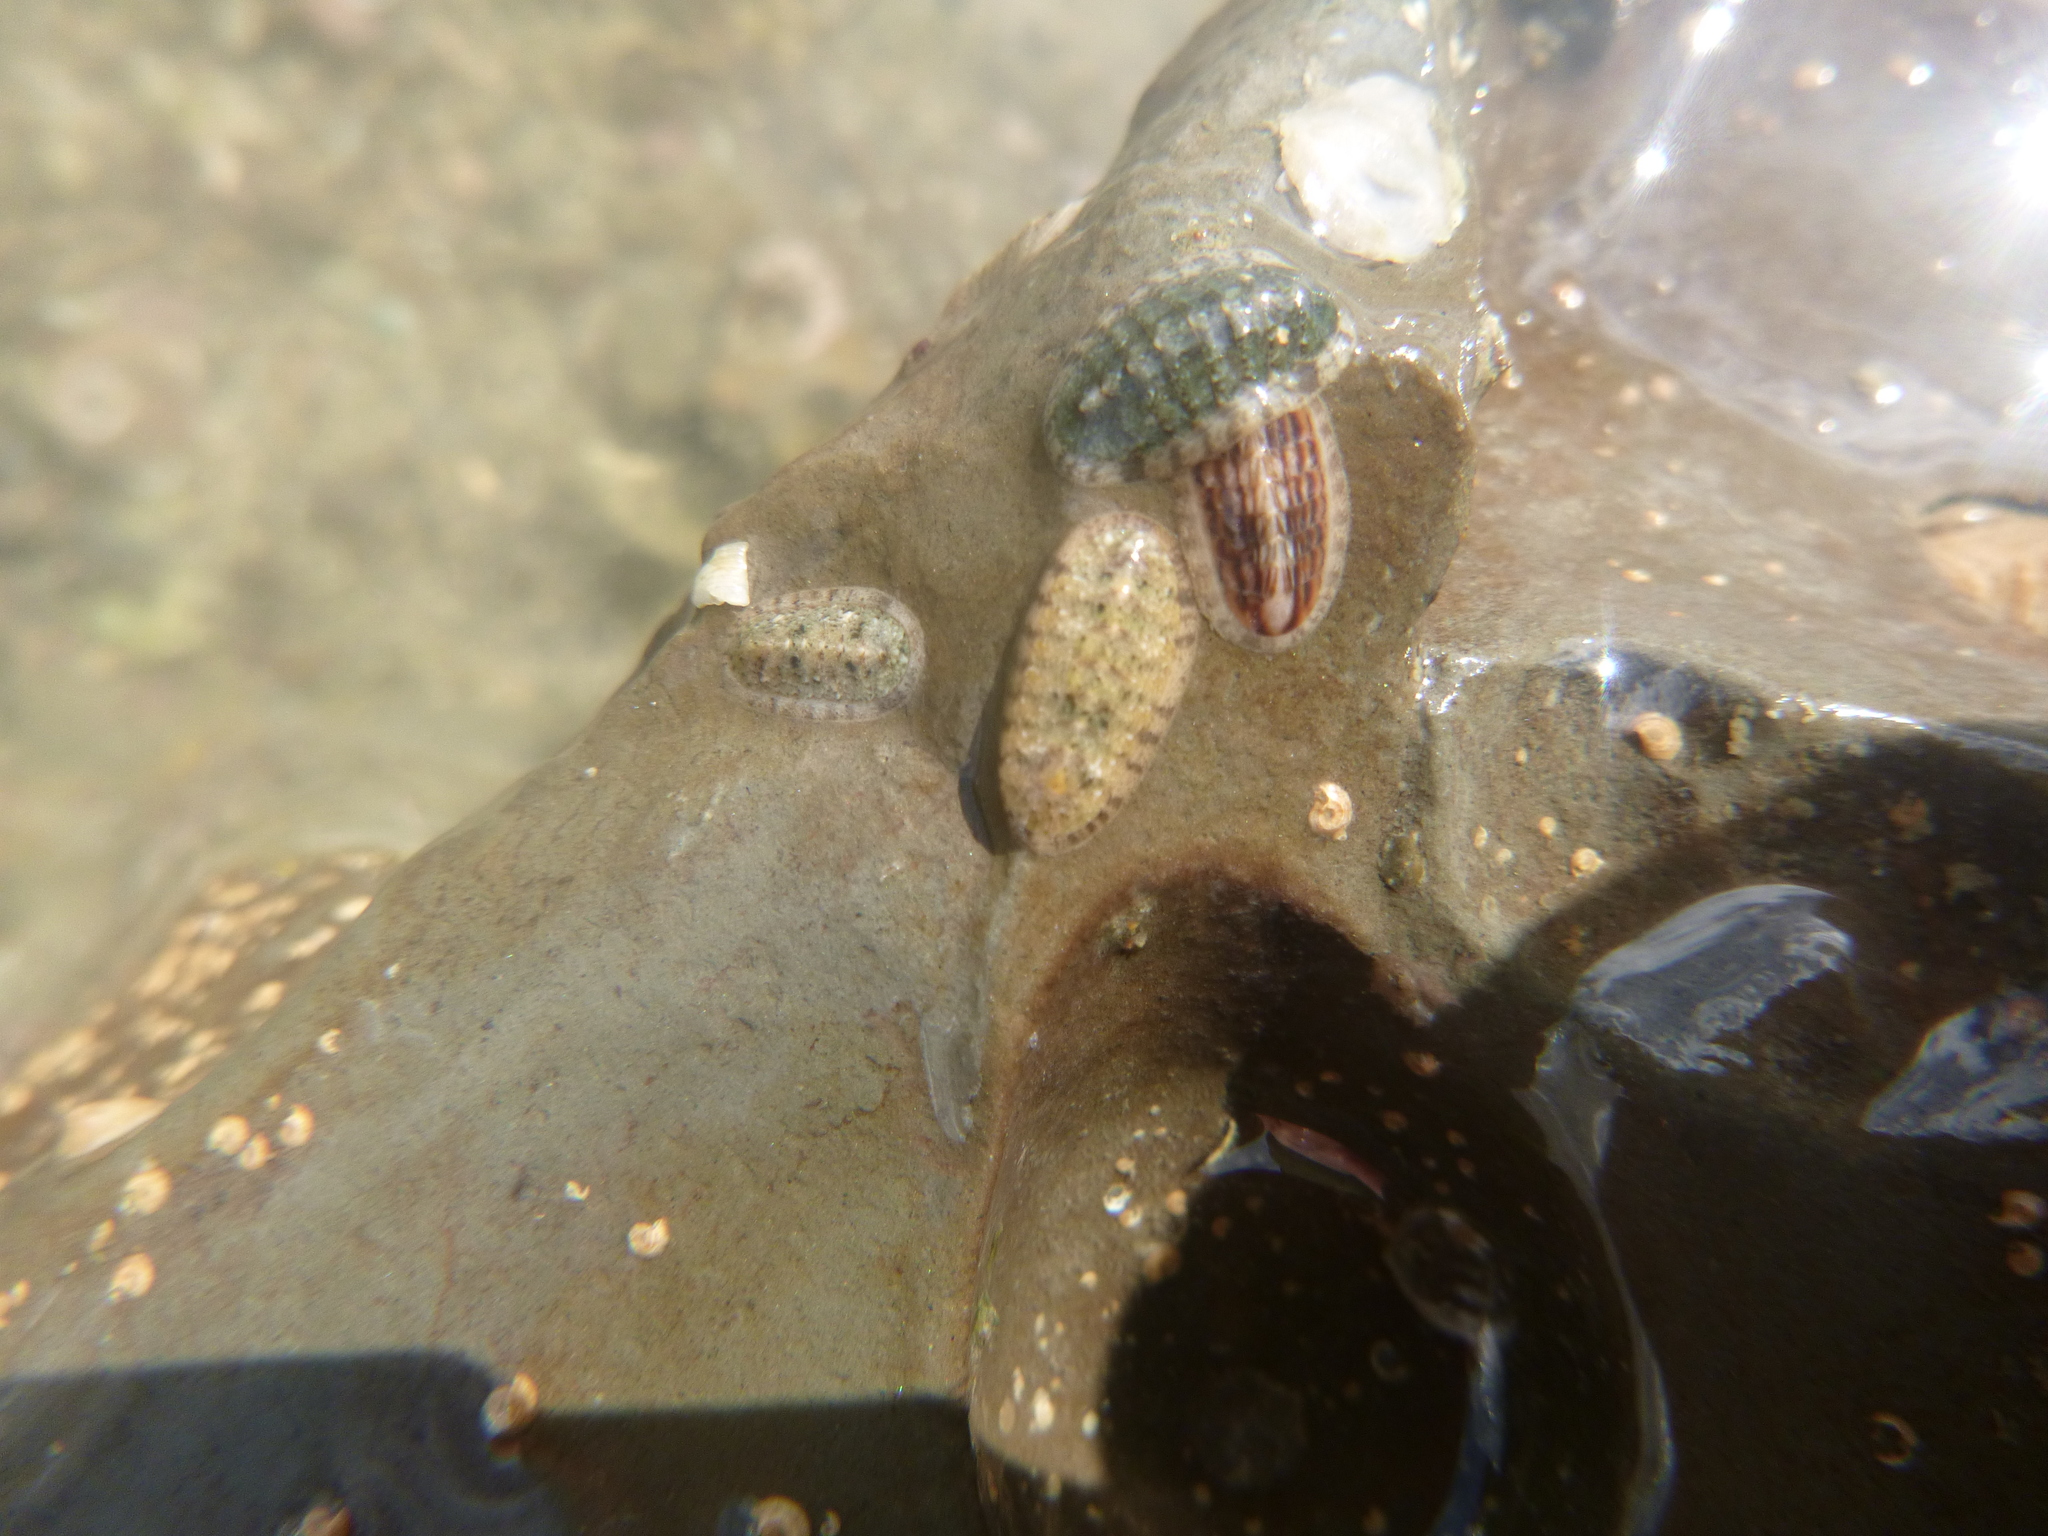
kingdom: Animalia
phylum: Mollusca
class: Polyplacophora
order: Chitonida
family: Ischnochitonidae
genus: Ischnochiton
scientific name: Ischnochiton maorianus
